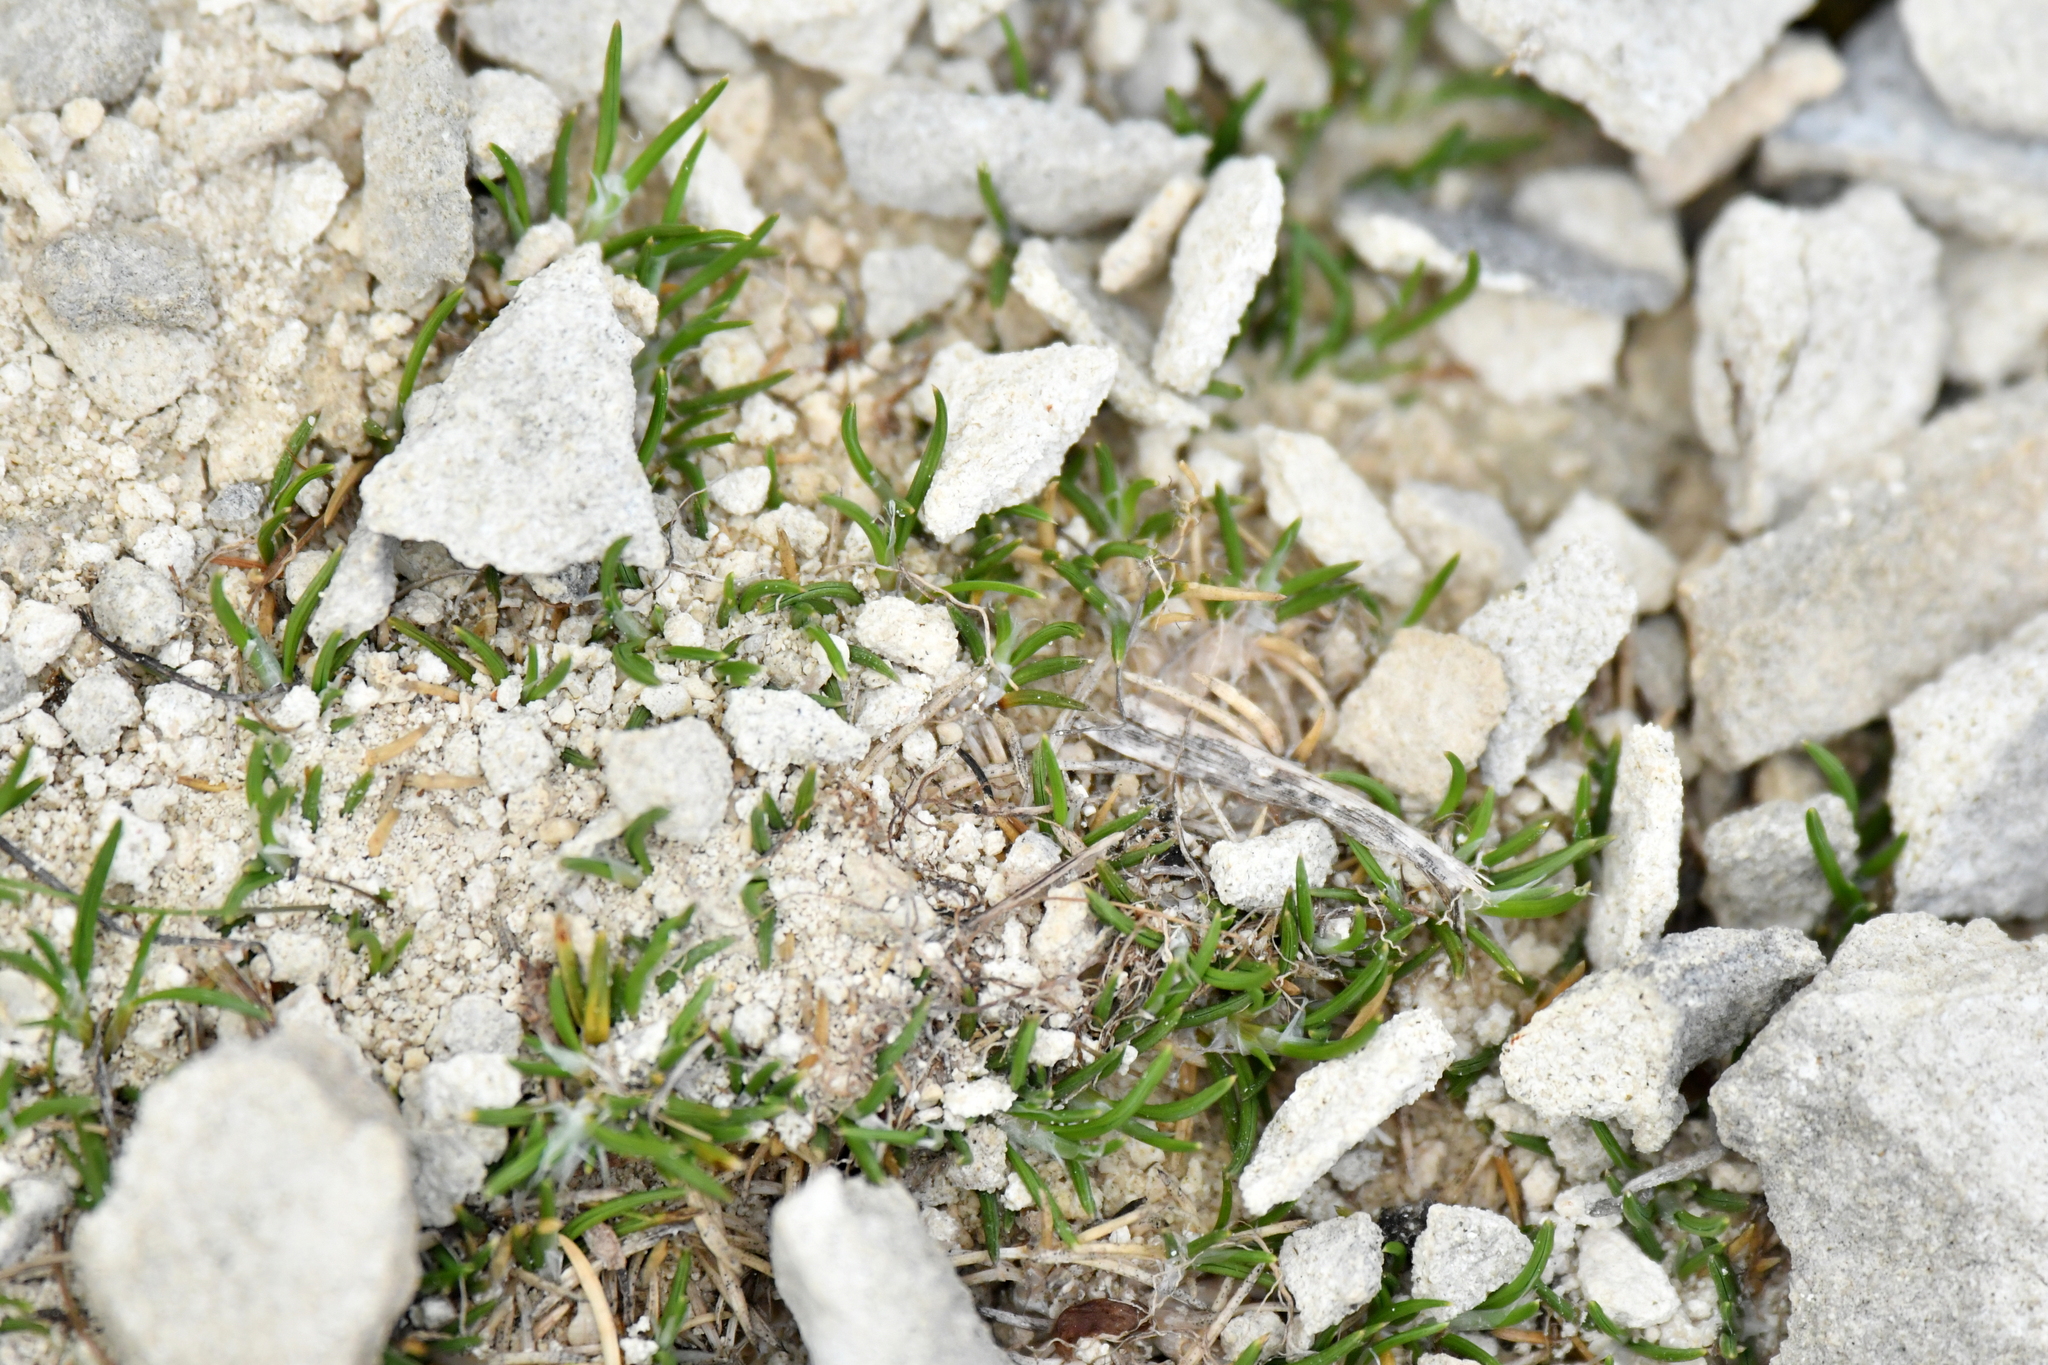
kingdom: Plantae
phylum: Tracheophyta
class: Liliopsida
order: Poales
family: Poaceae
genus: Poa
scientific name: Poa acicularifolia
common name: Limestone cushion poa
